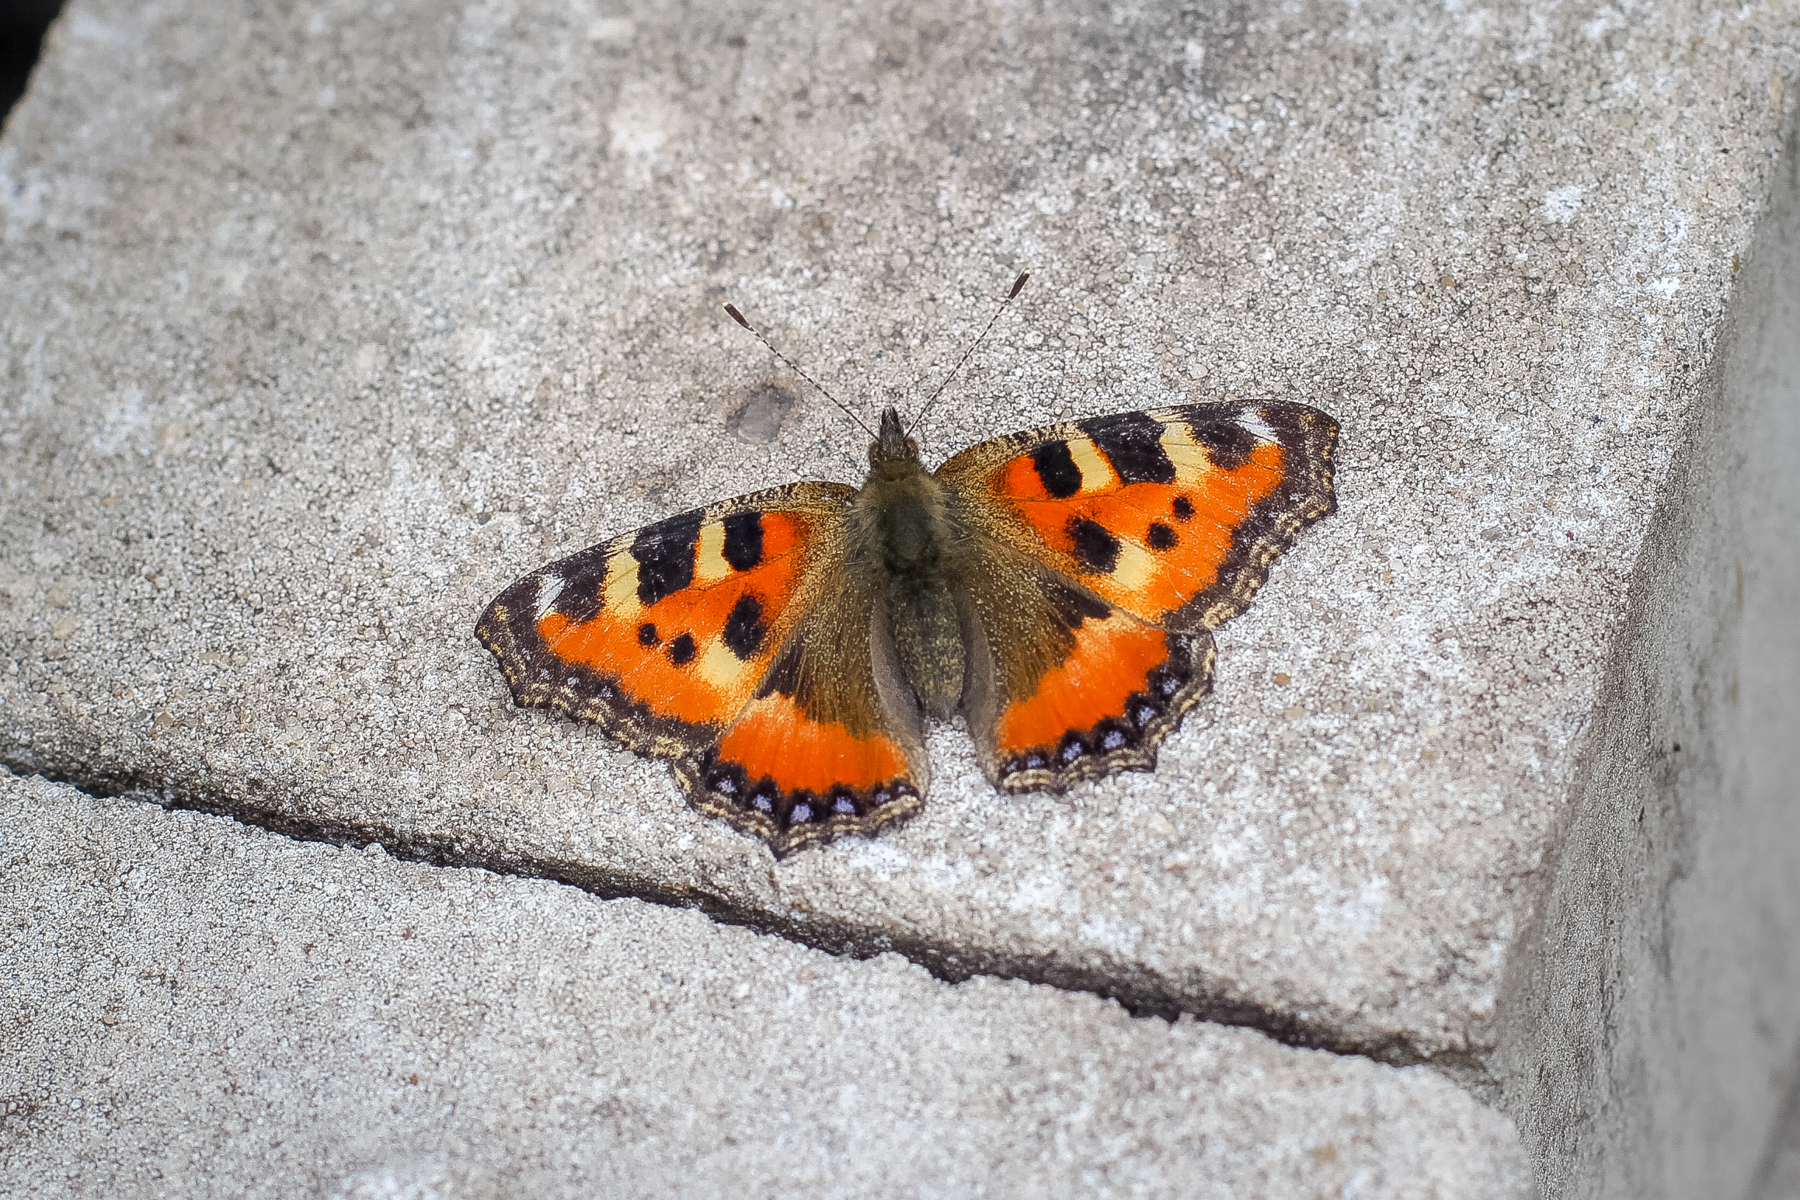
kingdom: Animalia
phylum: Arthropoda
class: Insecta
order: Lepidoptera
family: Nymphalidae
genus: Aglais
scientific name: Aglais urticae
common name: Small tortoiseshell
